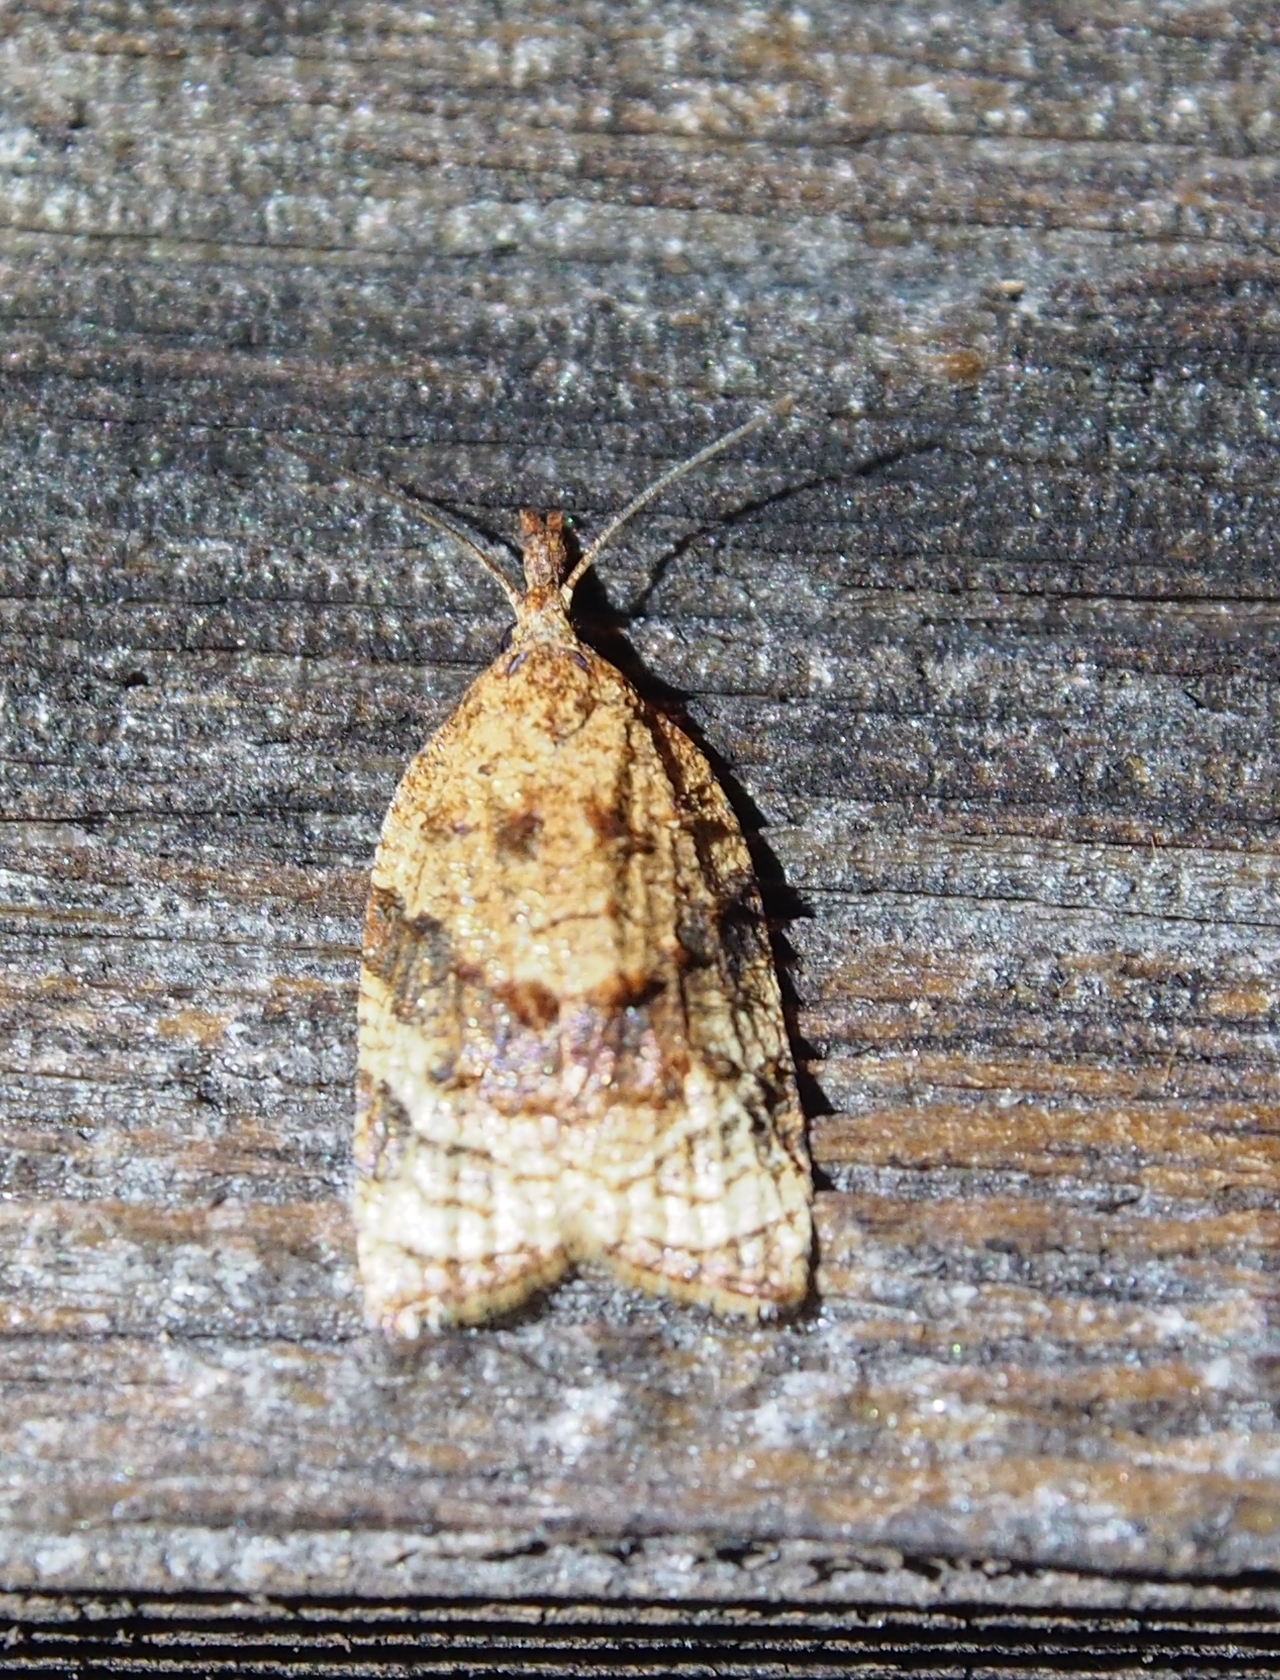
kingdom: Animalia
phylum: Arthropoda
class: Insecta
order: Lepidoptera
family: Tortricidae
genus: Platynota
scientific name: Platynota flavedana
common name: Black-shaded platynota moth
